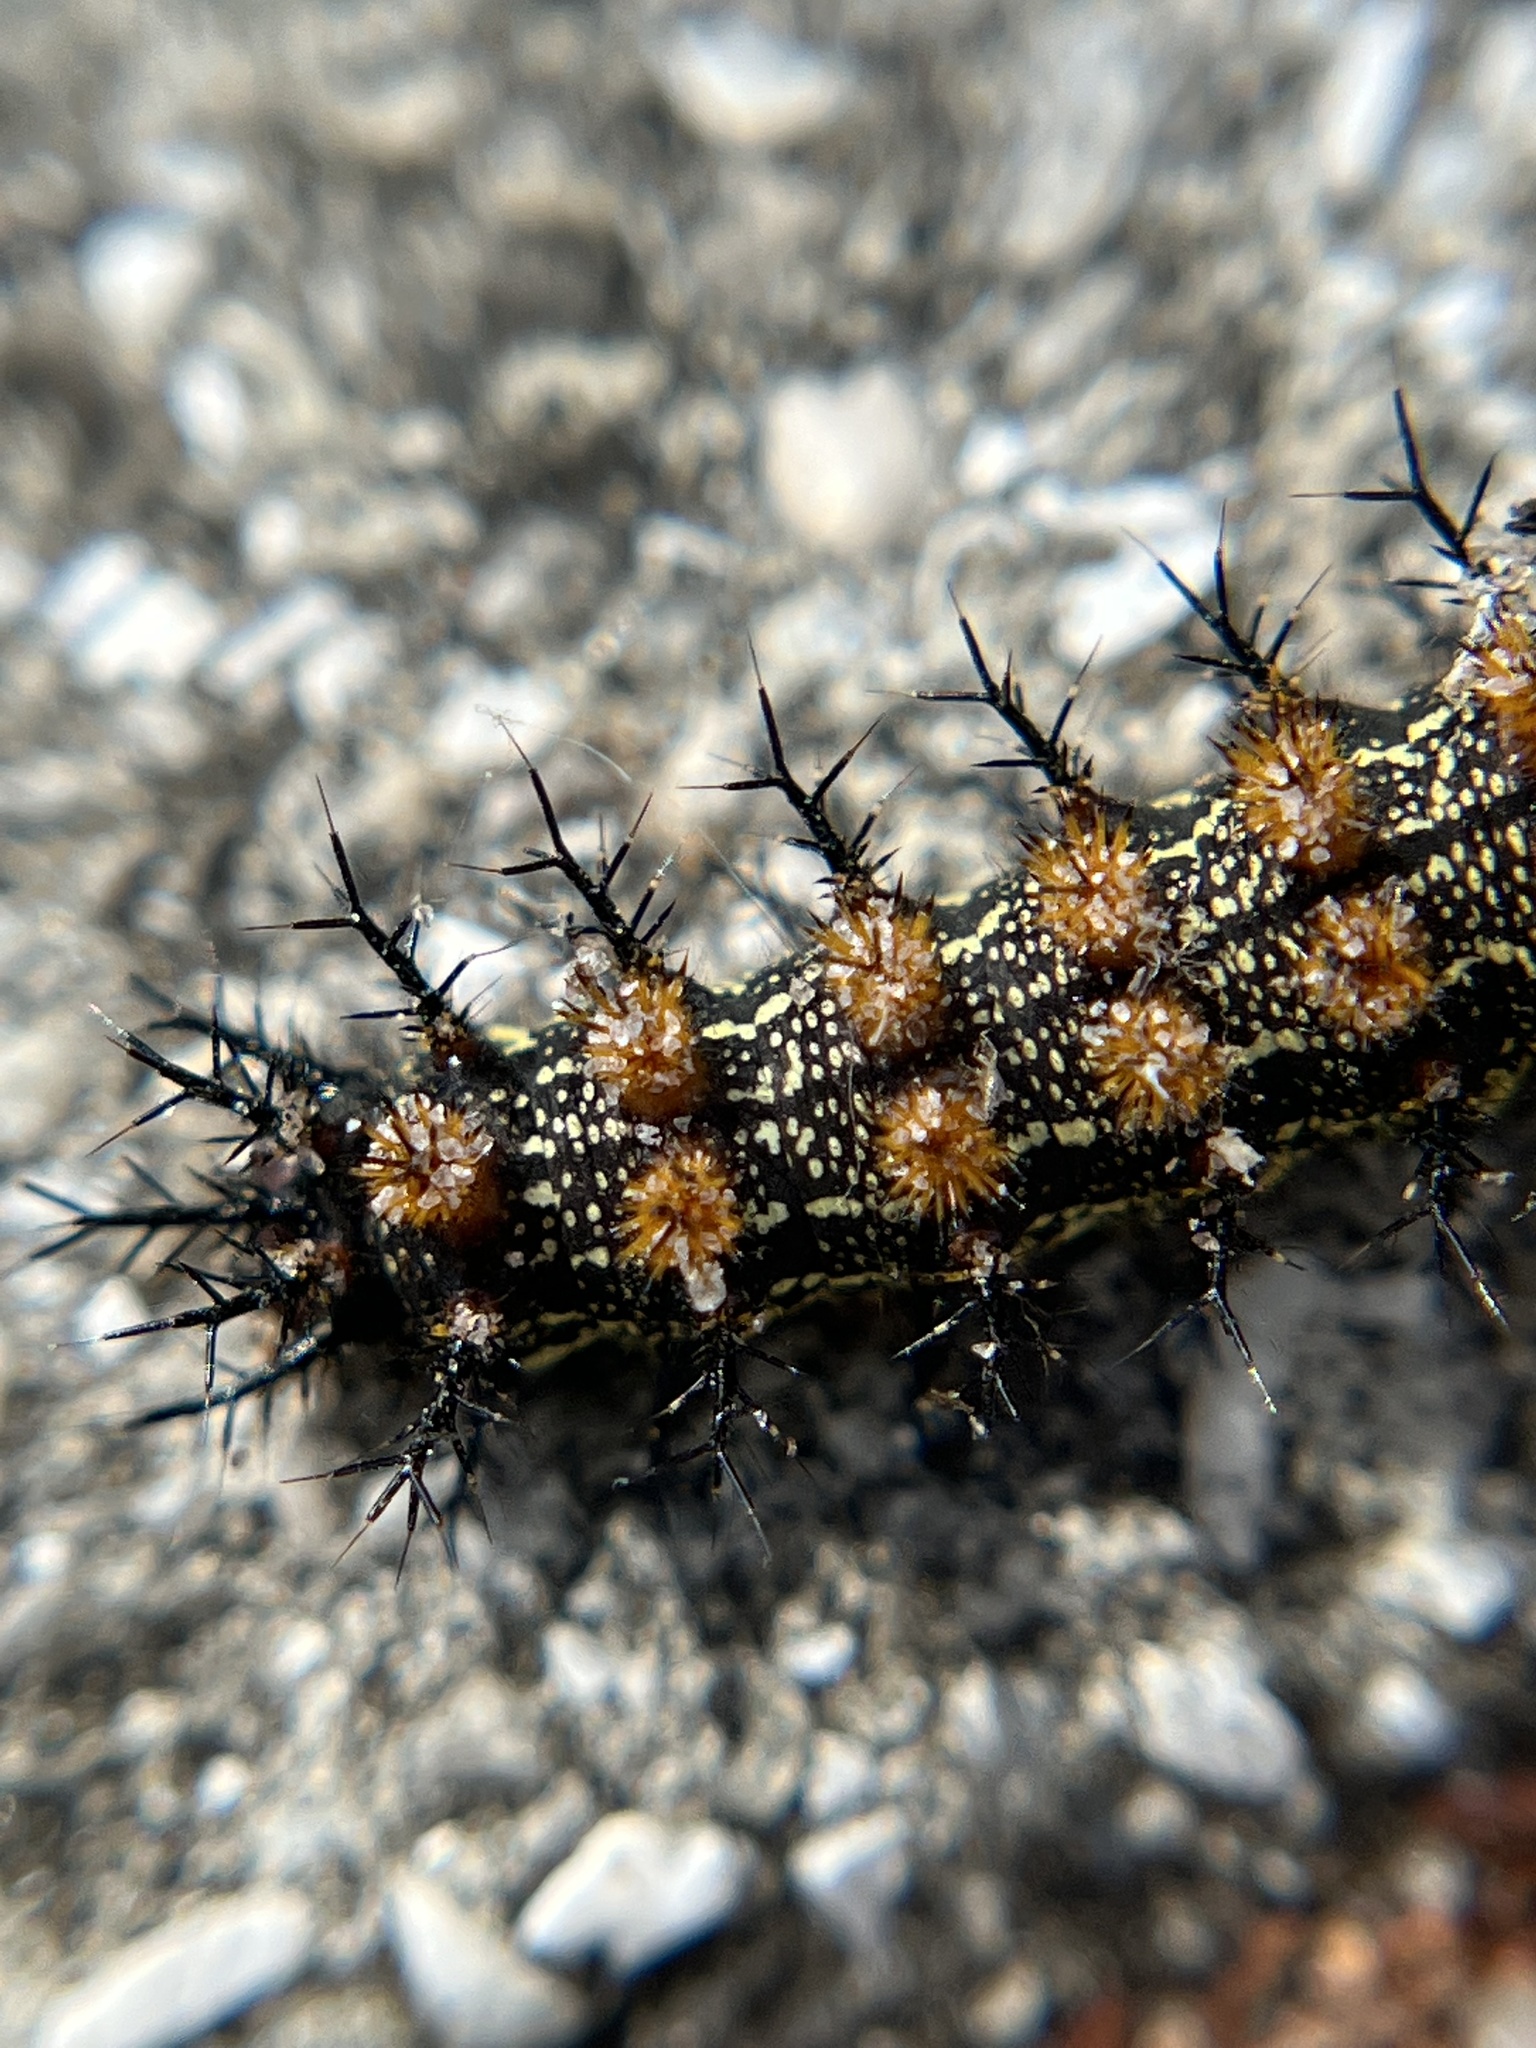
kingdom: Animalia
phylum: Arthropoda
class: Insecta
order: Lepidoptera
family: Saturniidae
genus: Hemileuca
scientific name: Hemileuca maia
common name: Eastern buckmoth
